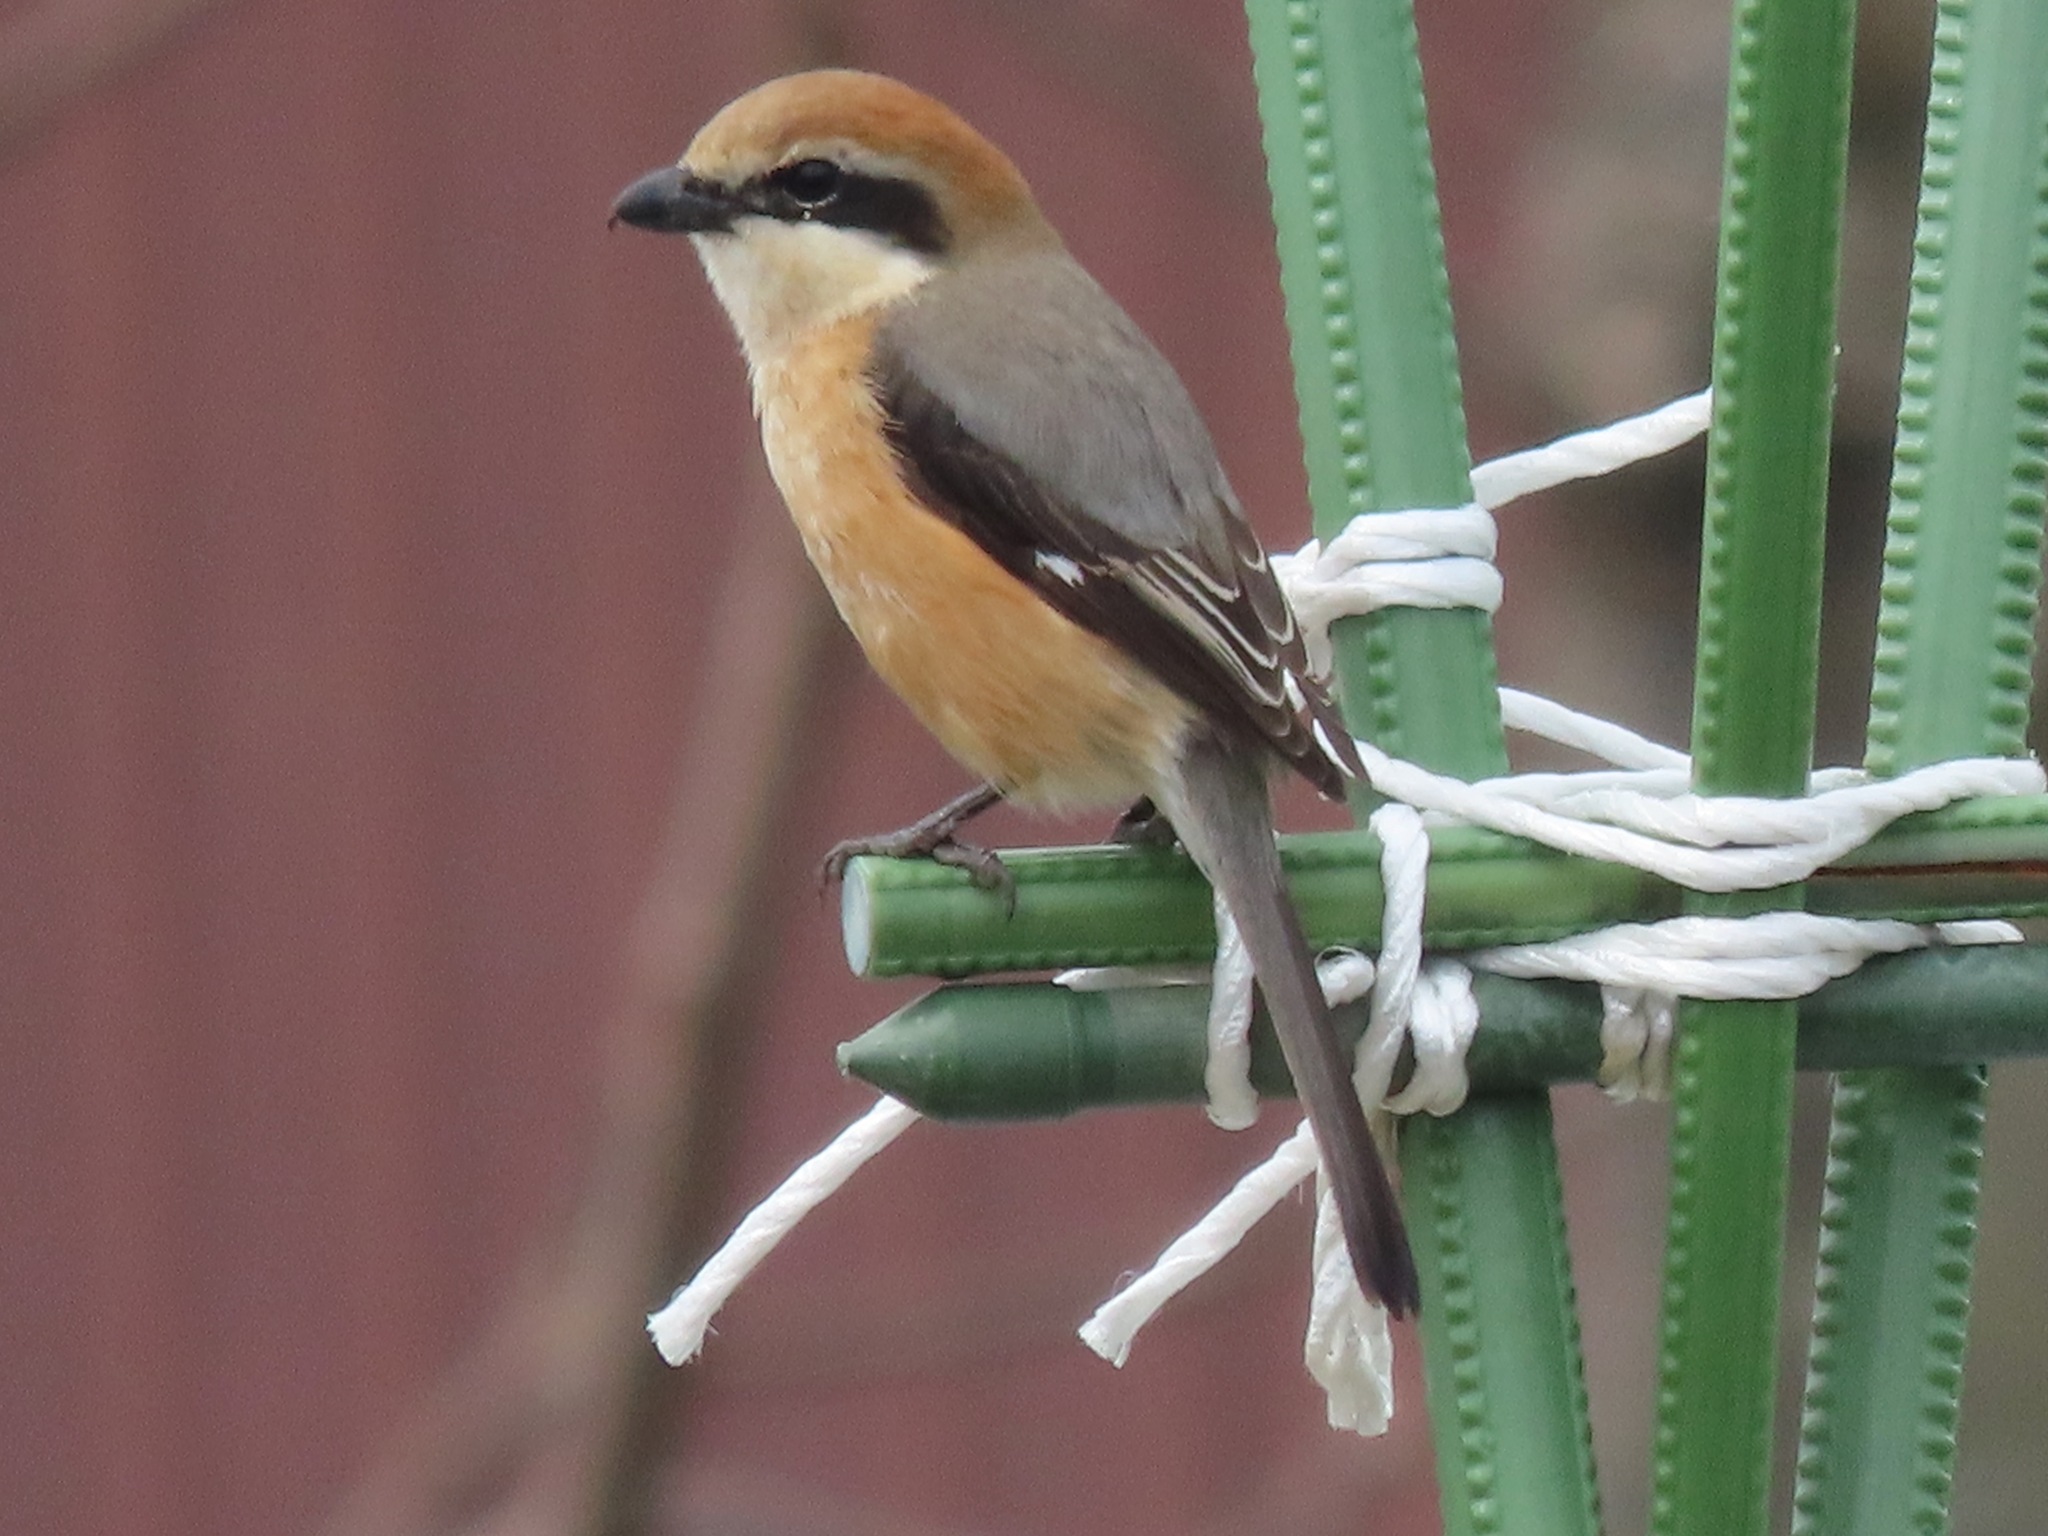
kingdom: Animalia
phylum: Chordata
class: Aves
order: Passeriformes
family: Laniidae
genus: Lanius
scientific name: Lanius bucephalus
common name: Bull-headed shrike
